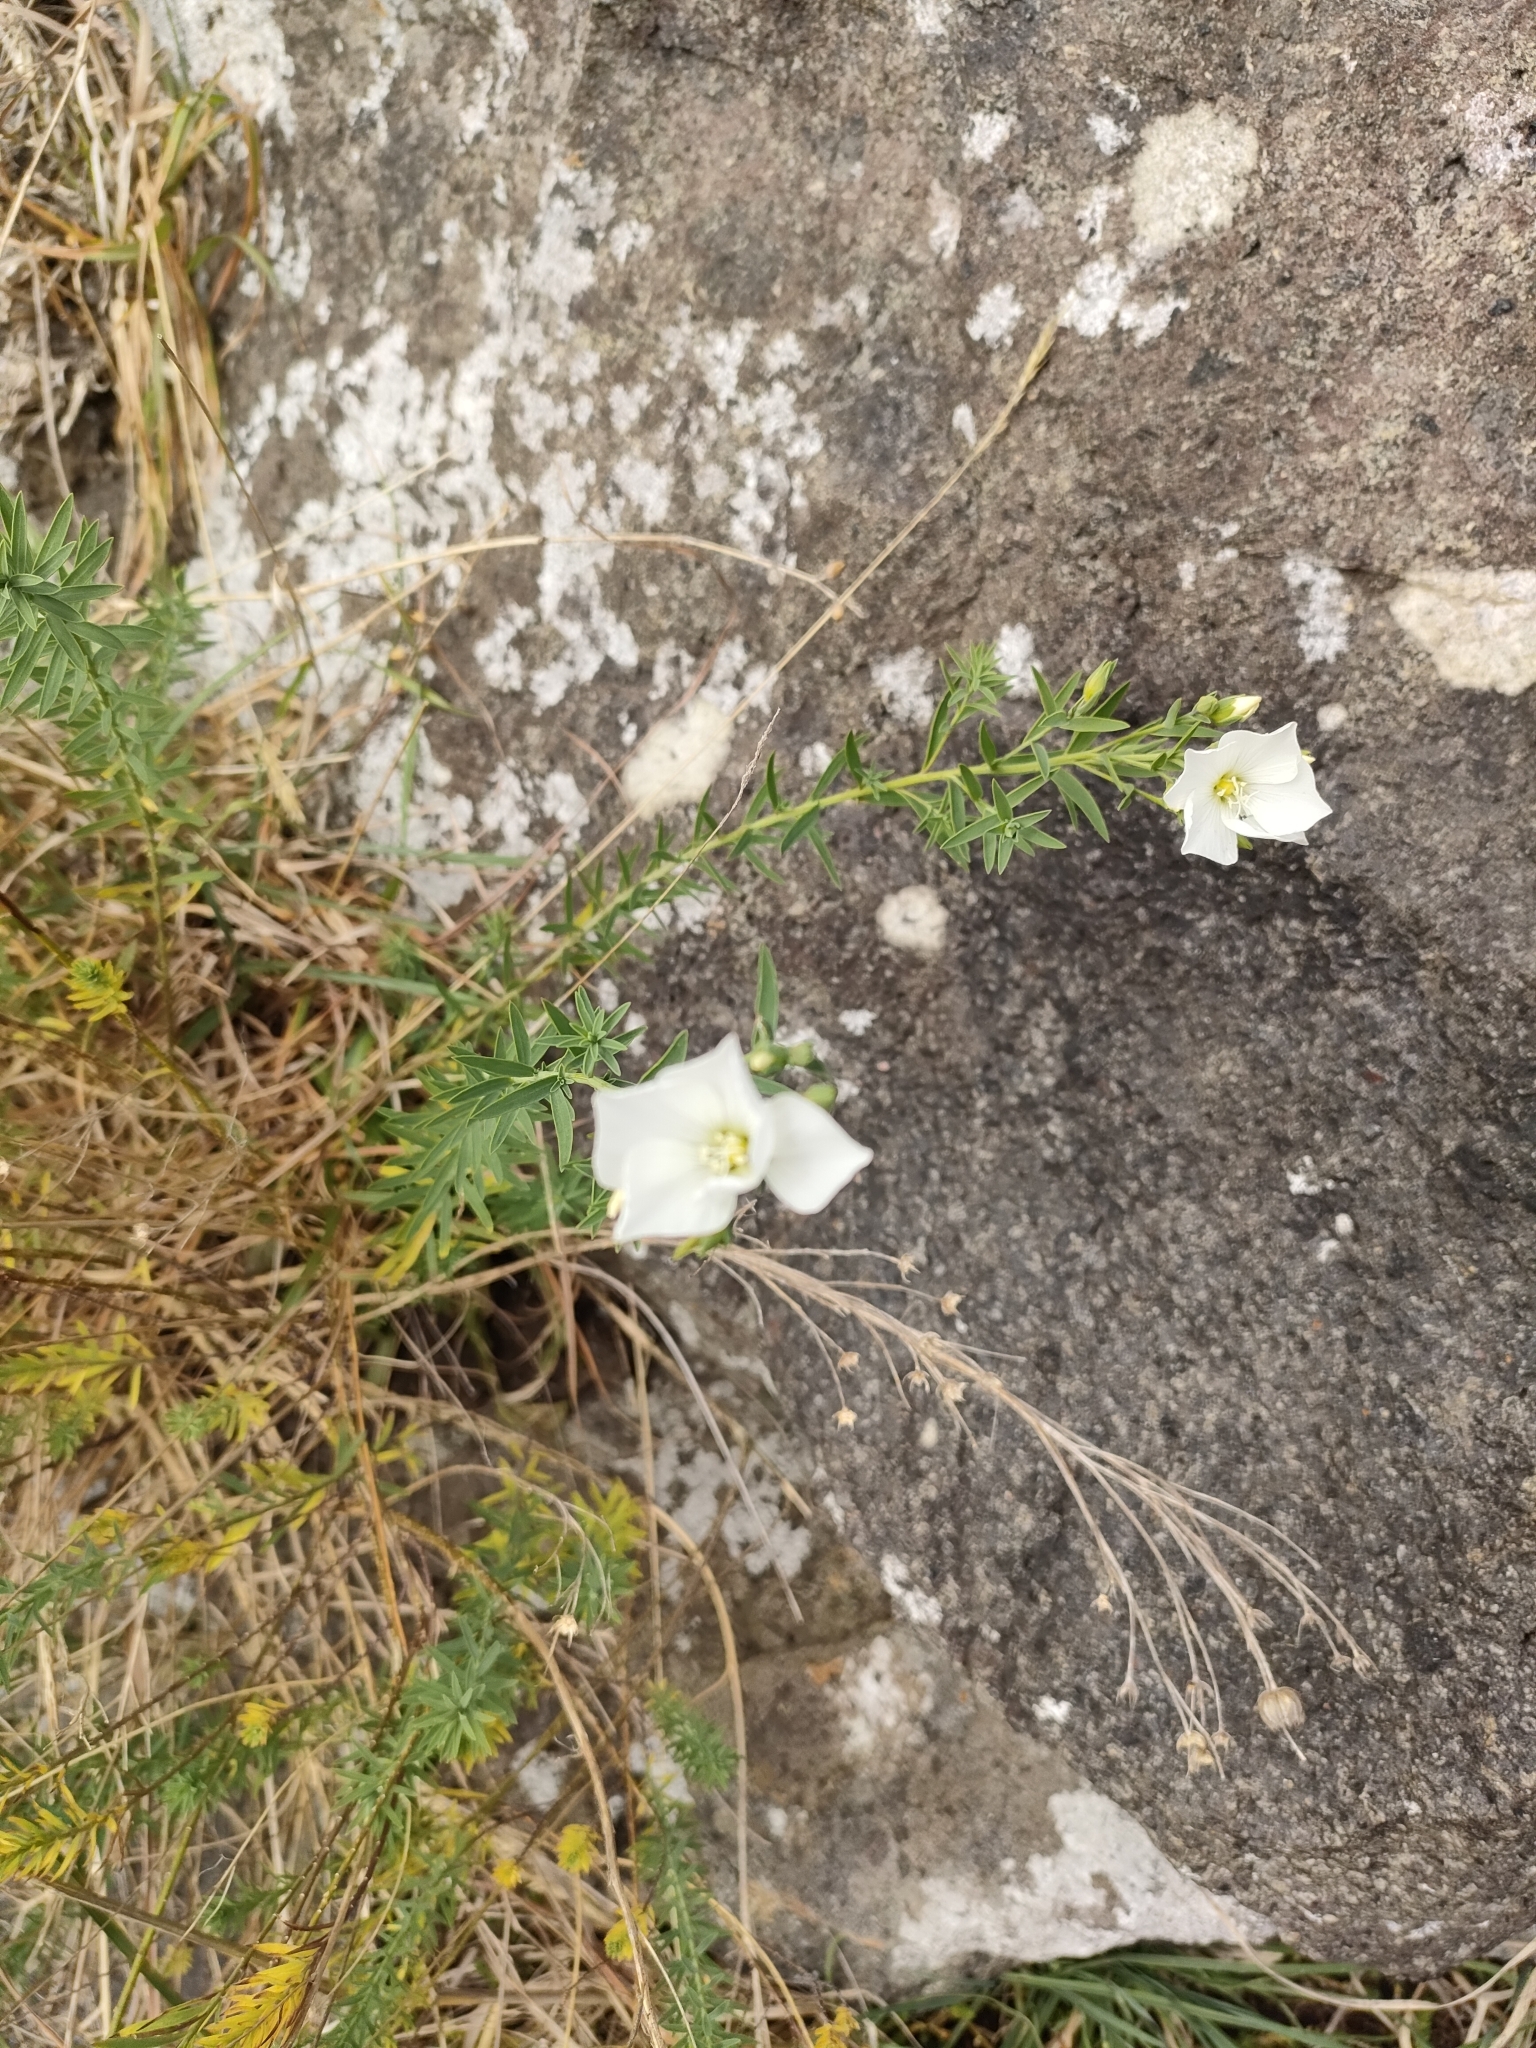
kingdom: Plantae
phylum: Tracheophyta
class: Magnoliopsida
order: Malpighiales
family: Linaceae
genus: Linum
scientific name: Linum monogynum
